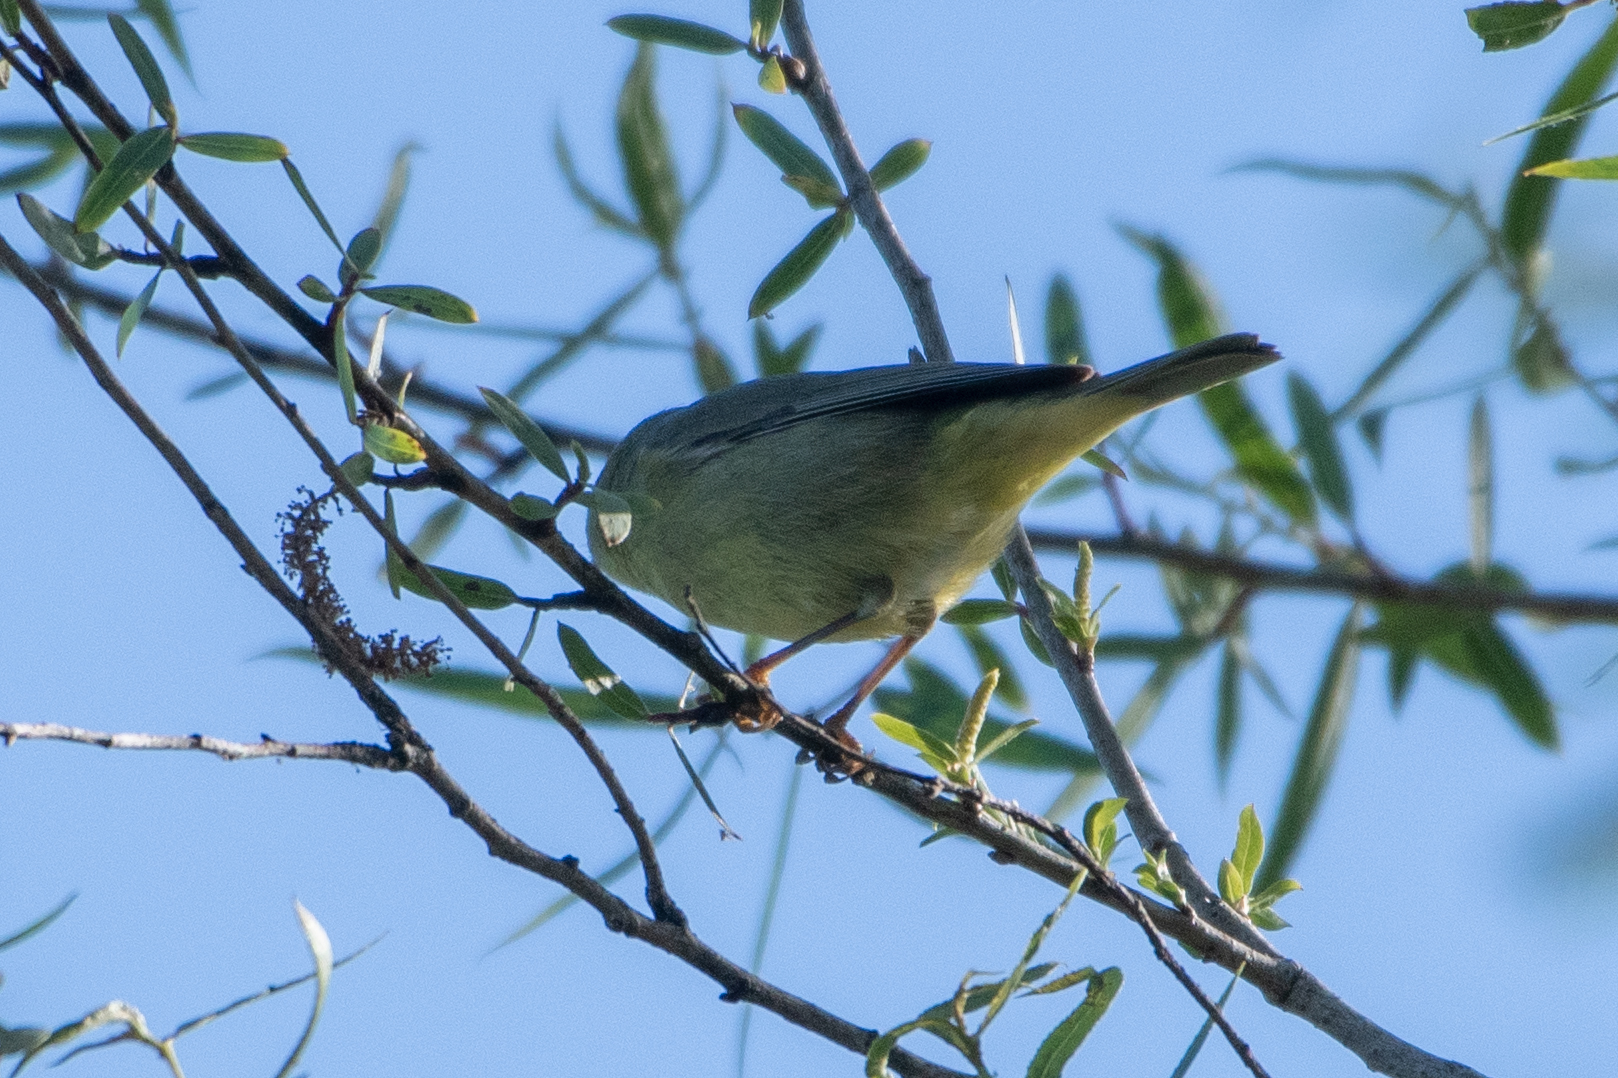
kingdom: Animalia
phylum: Chordata
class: Aves
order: Passeriformes
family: Parulidae
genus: Leiothlypis
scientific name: Leiothlypis celata
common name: Orange-crowned warbler
